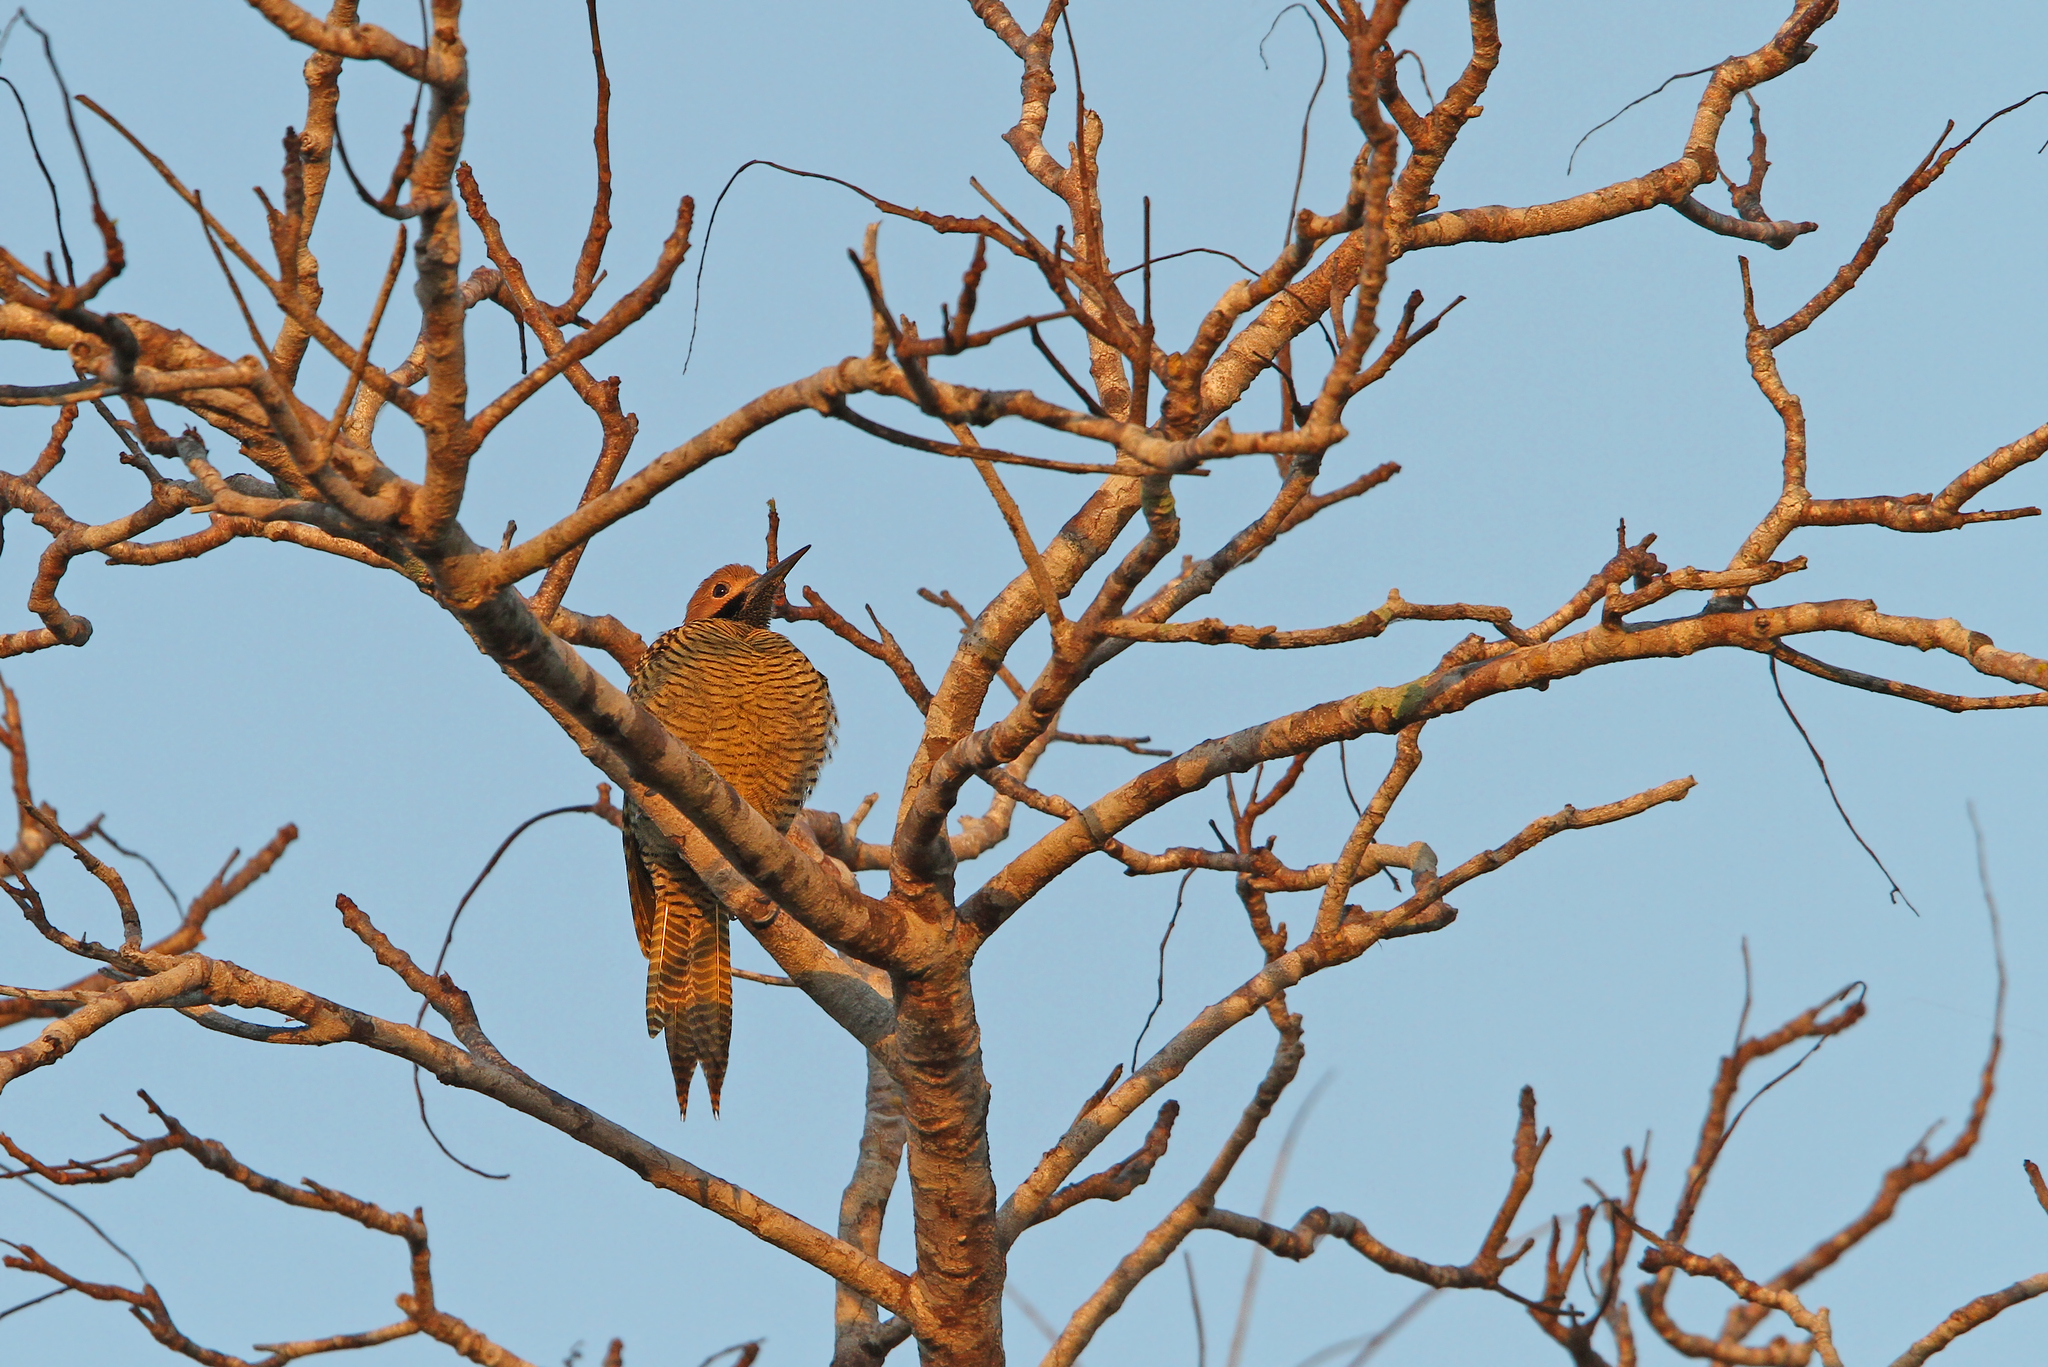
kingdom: Animalia
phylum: Chordata
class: Aves
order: Piciformes
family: Picidae
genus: Colaptes
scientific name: Colaptes fernandinae
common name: Fernandina's flicker
